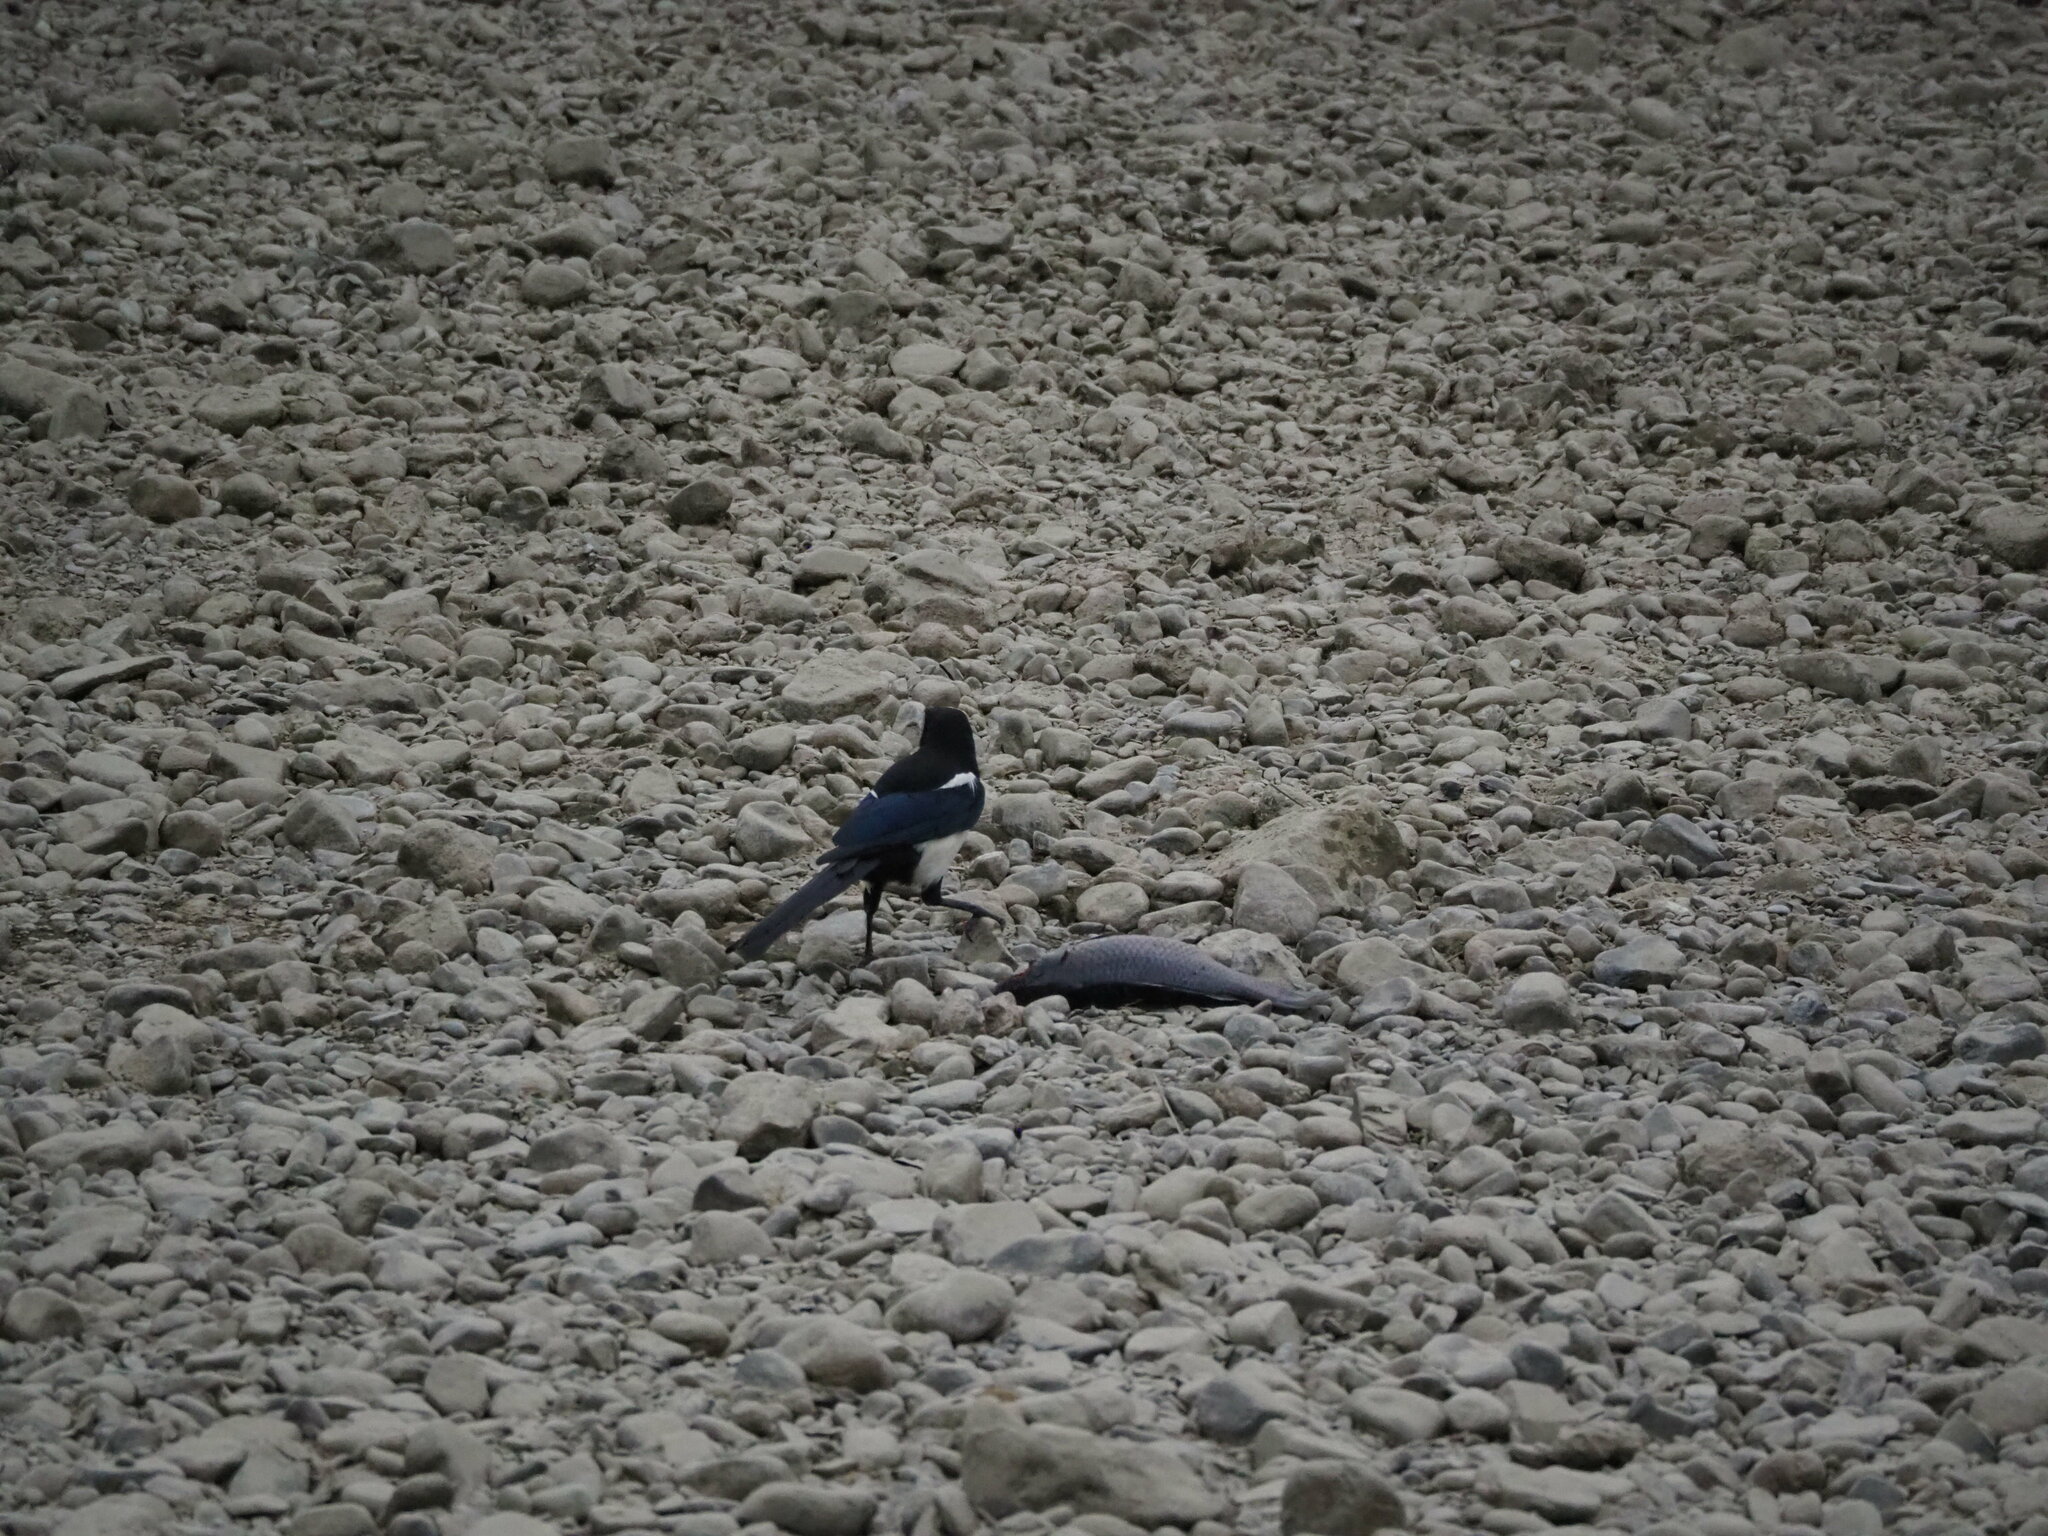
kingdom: Animalia
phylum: Chordata
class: Aves
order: Passeriformes
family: Corvidae
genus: Pica
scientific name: Pica serica
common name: Oriental magpie
